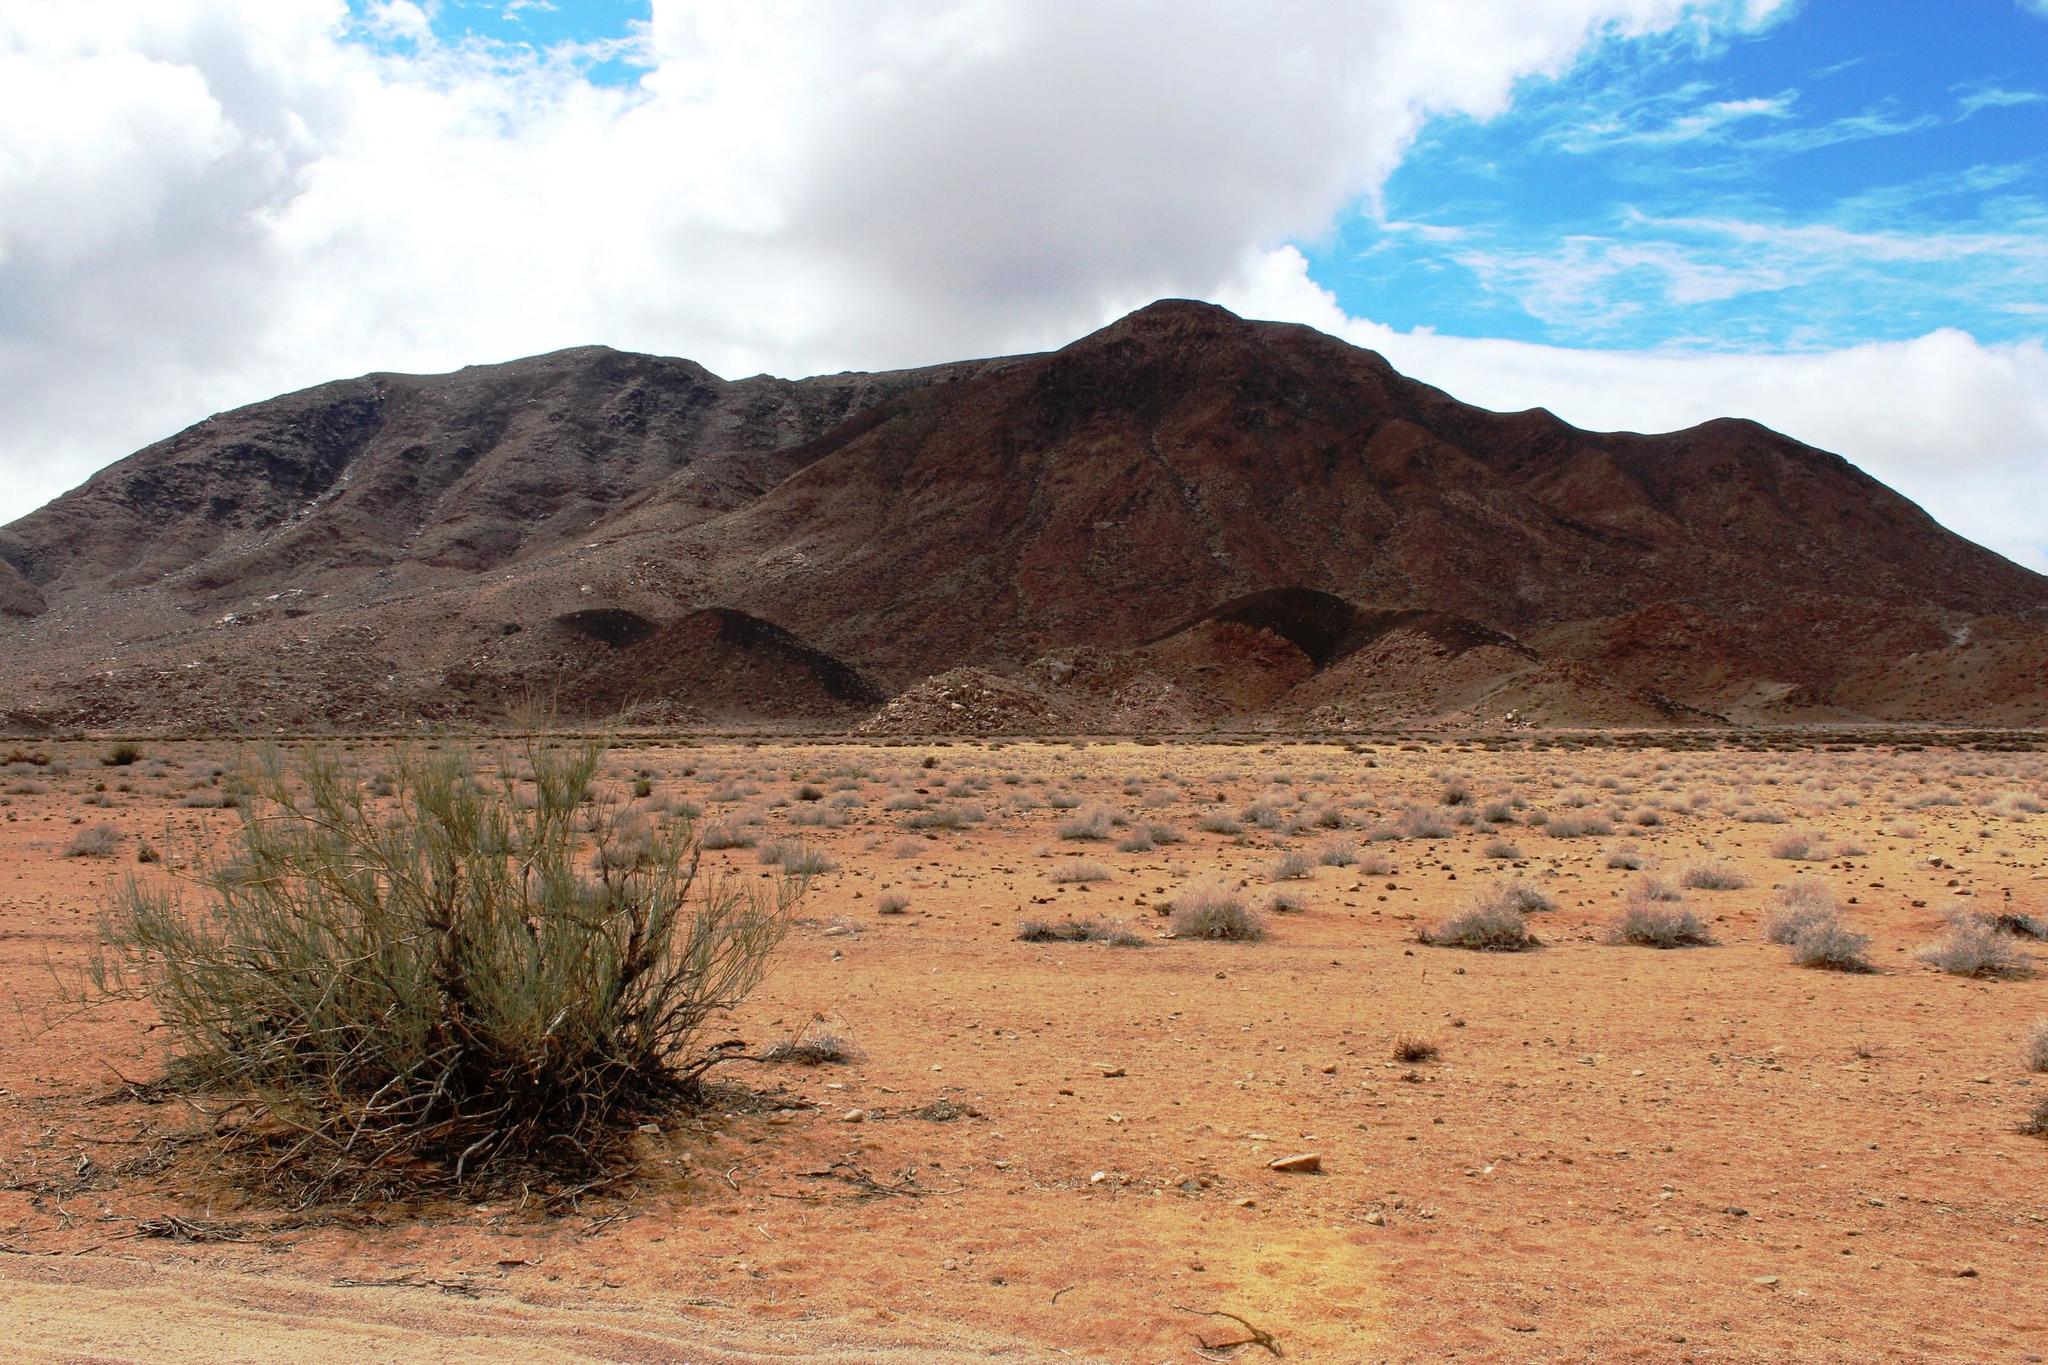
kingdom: Plantae
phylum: Tracheophyta
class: Magnoliopsida
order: Zygophyllales
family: Zygophyllaceae
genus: Sisyndite
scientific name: Sisyndite spartea
